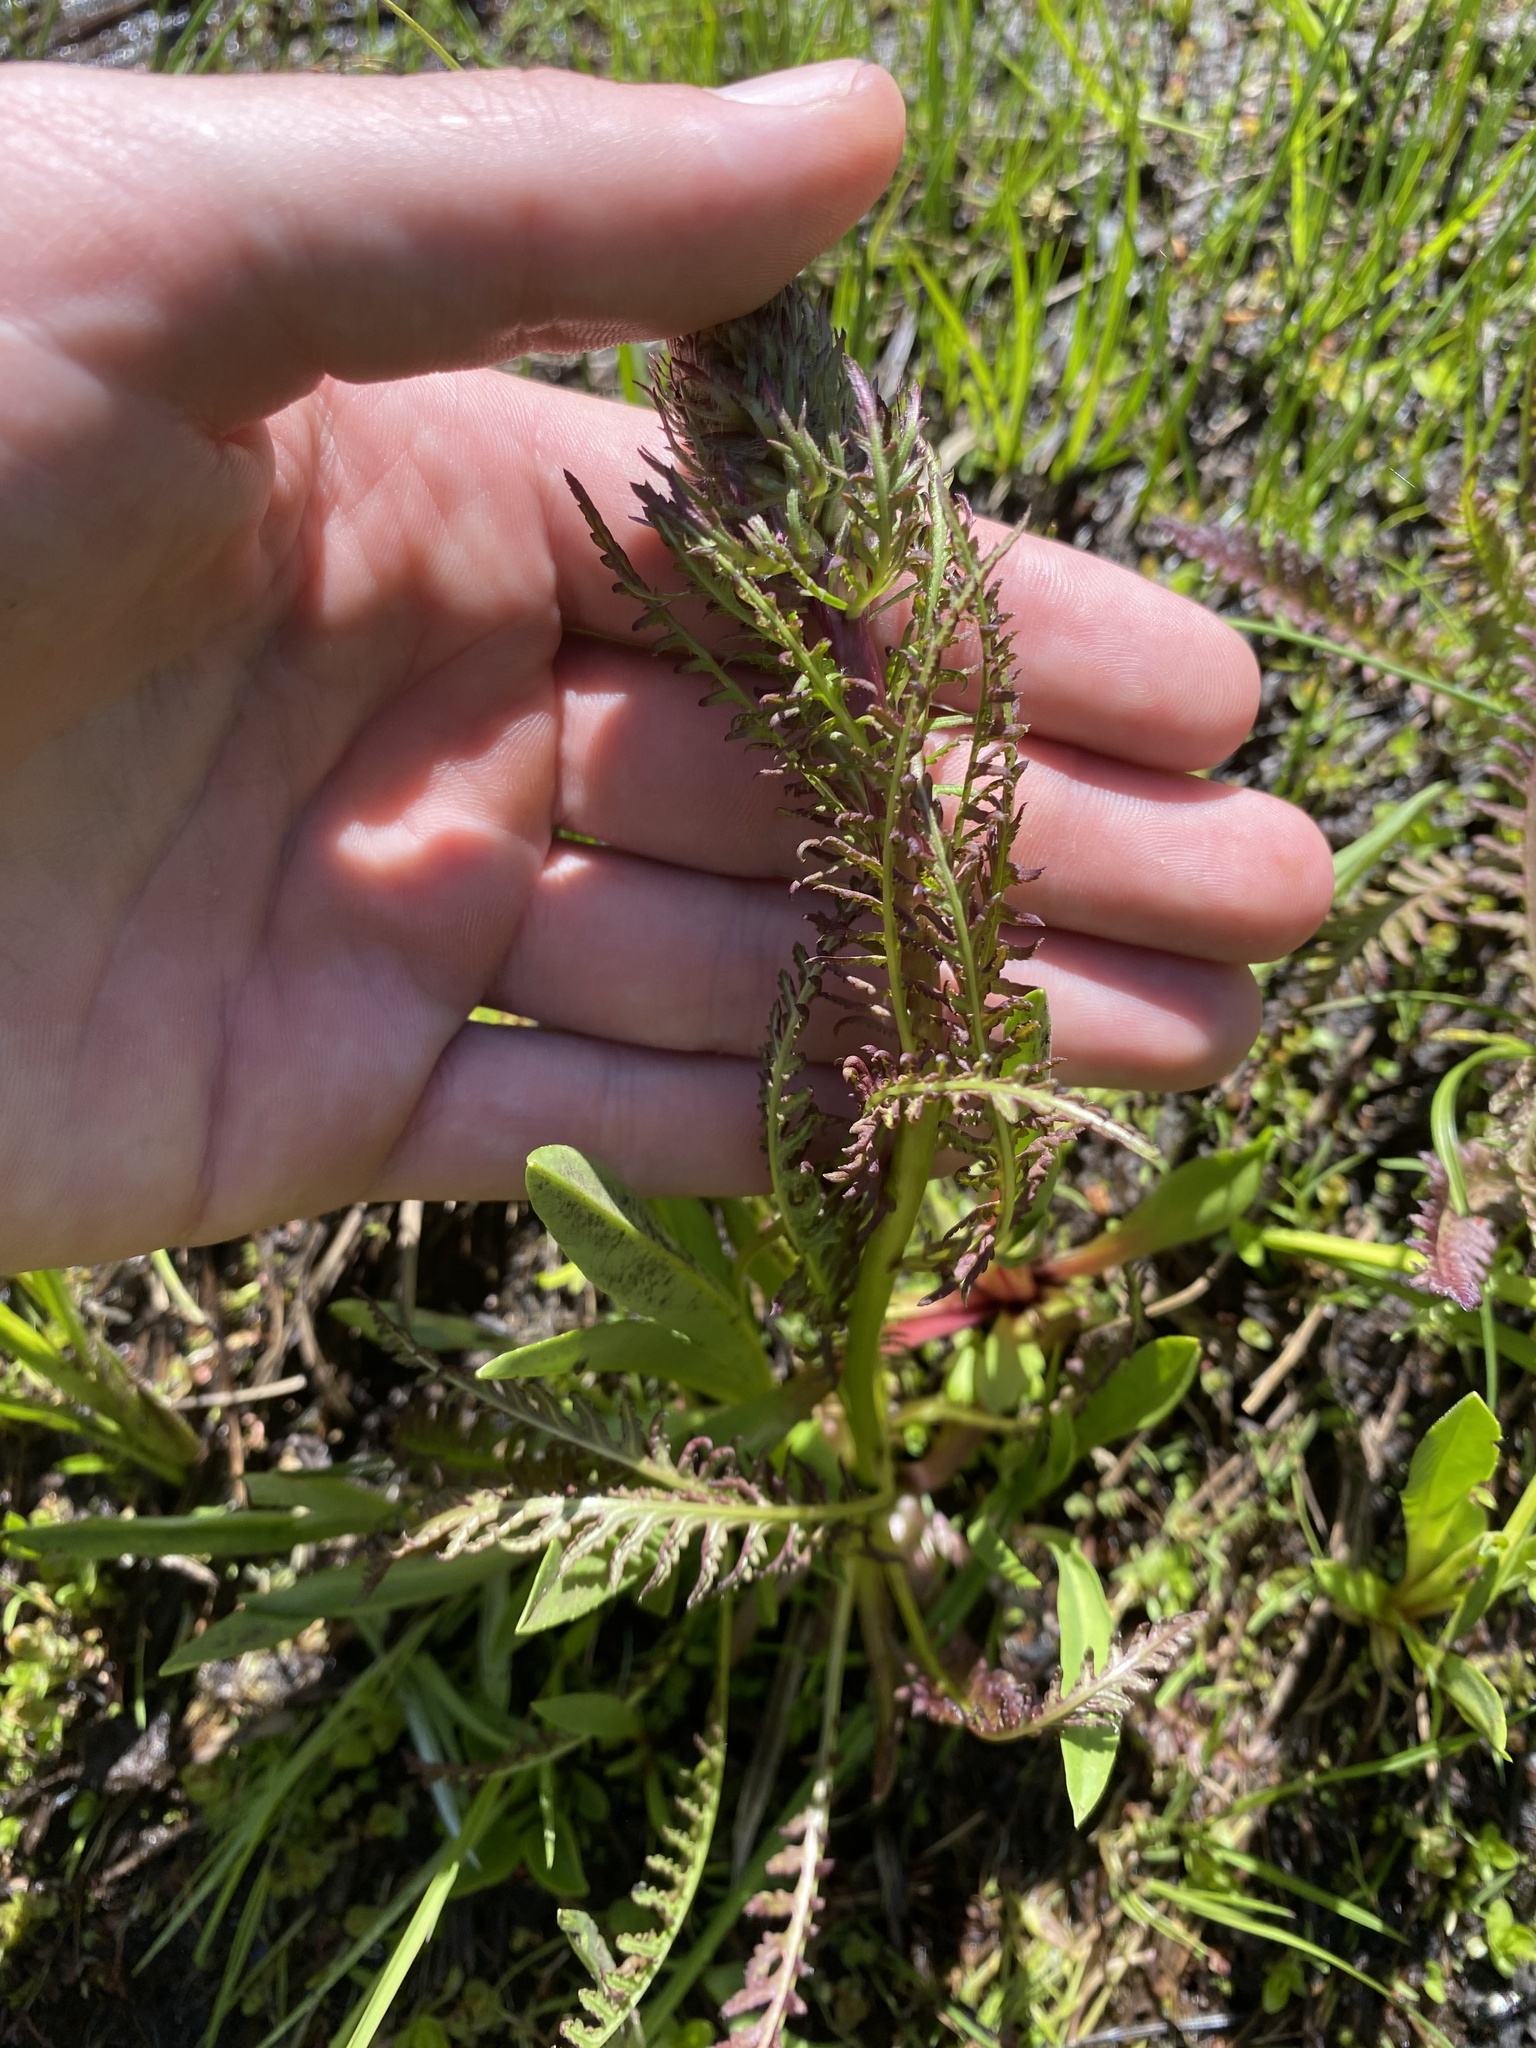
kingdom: Plantae
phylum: Tracheophyta
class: Magnoliopsida
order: Lamiales
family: Orobanchaceae
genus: Pedicularis
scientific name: Pedicularis groenlandica
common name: Elephant's-head
